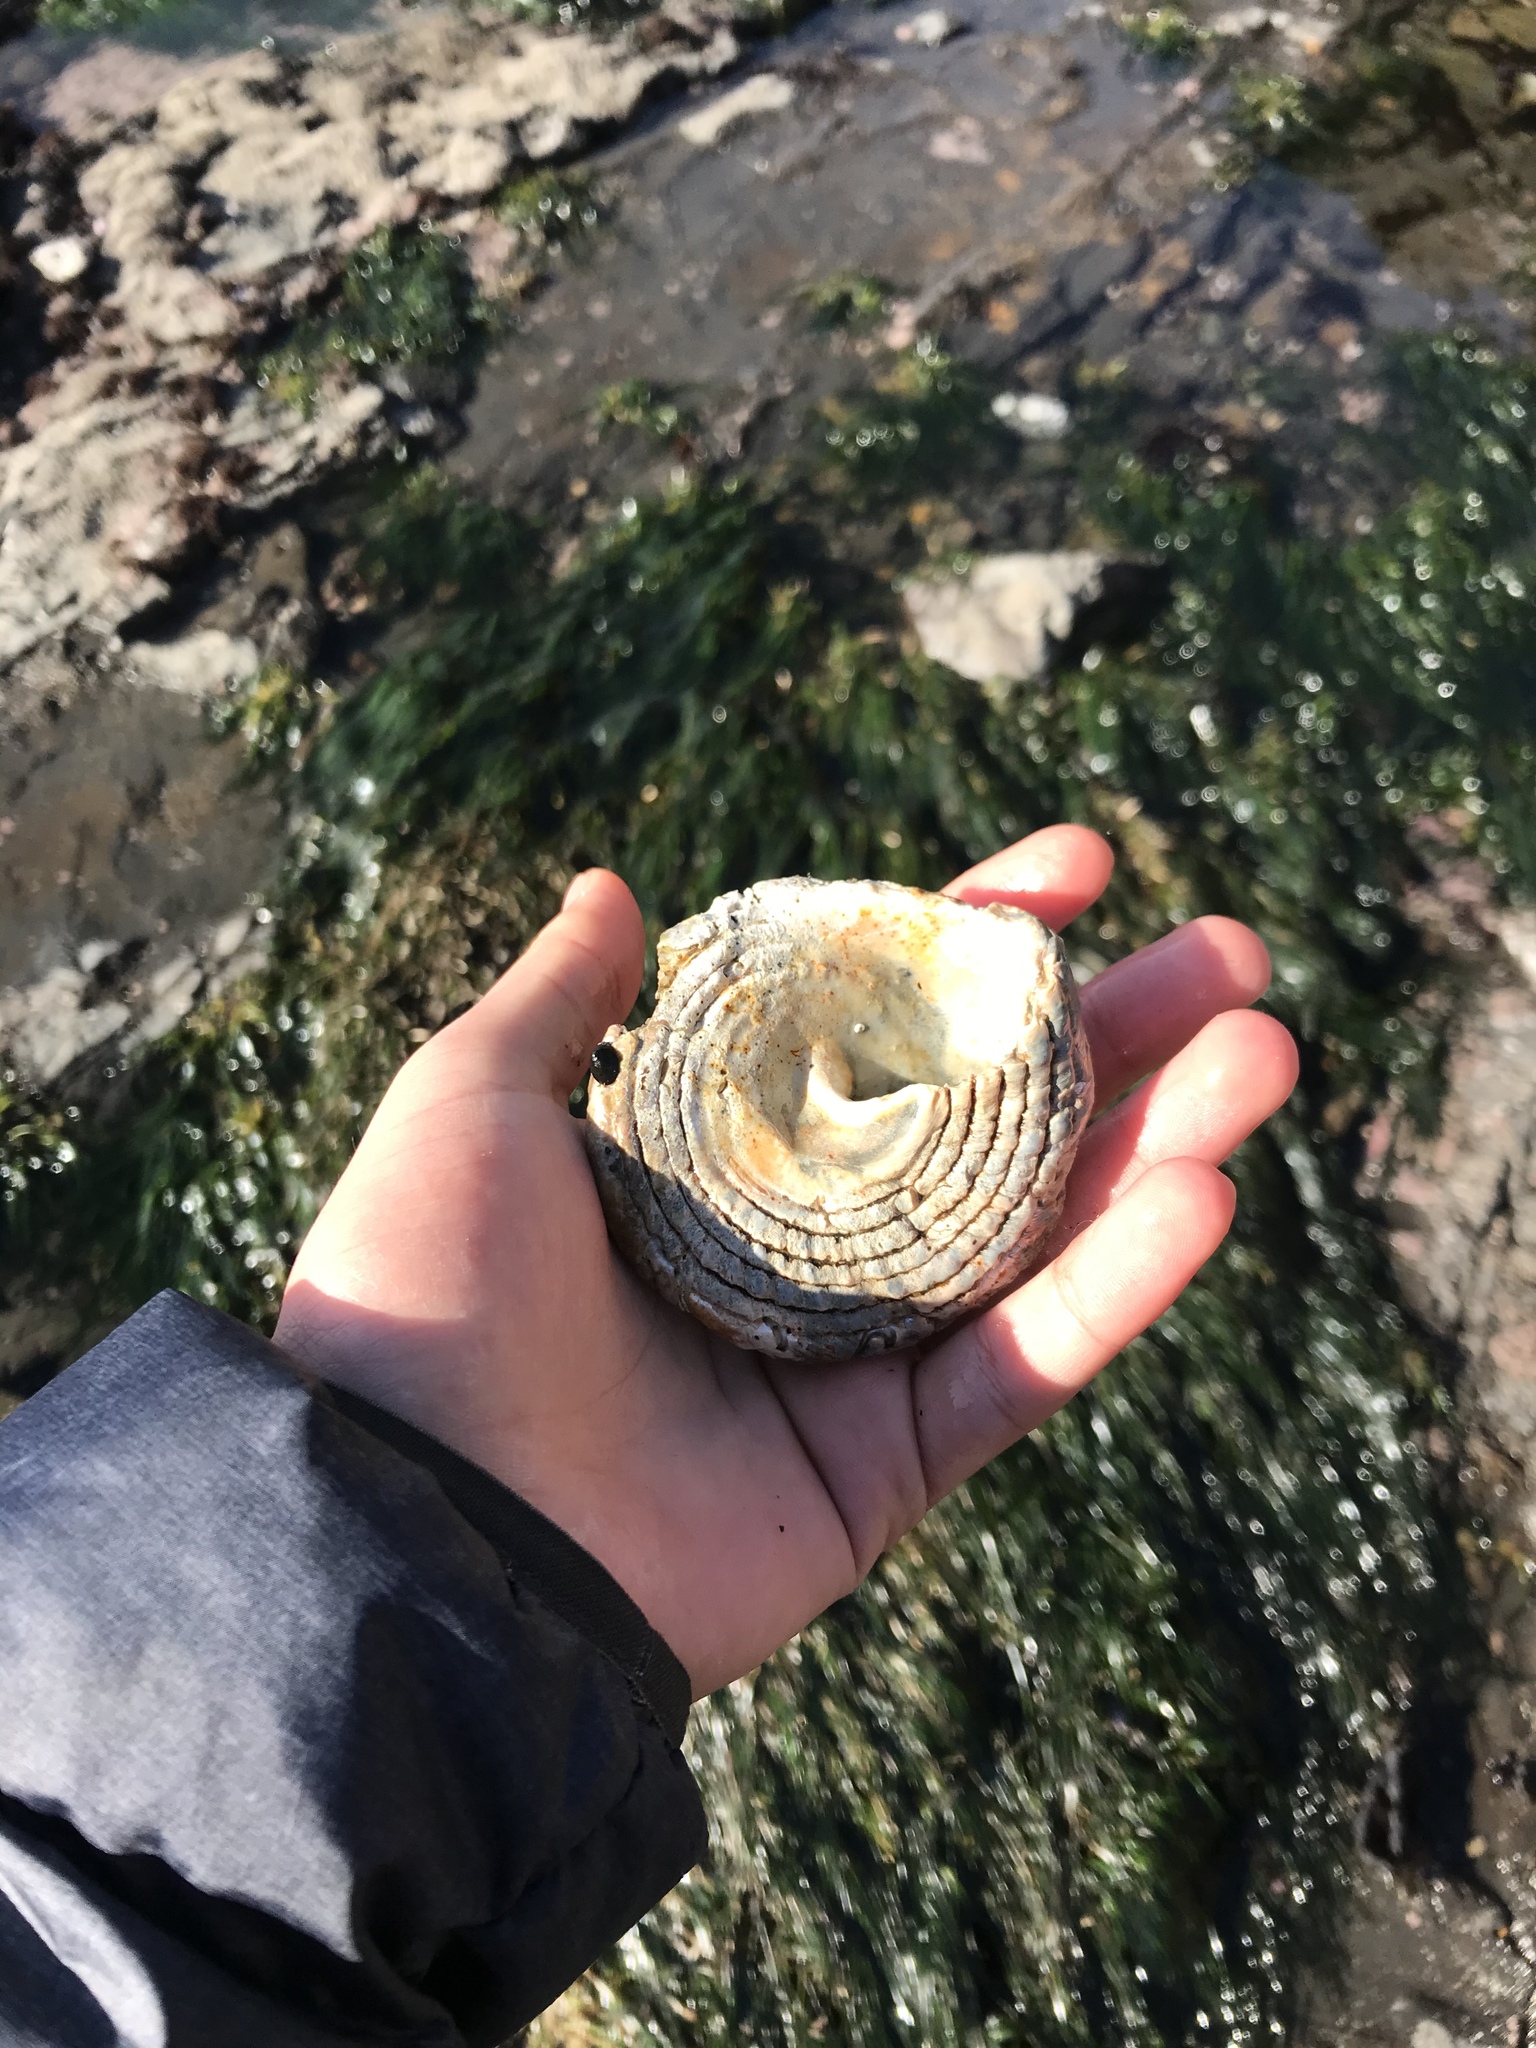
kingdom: Animalia
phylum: Mollusca
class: Gastropoda
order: Trochida
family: Turbinidae
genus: Pomaulax
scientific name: Pomaulax gibberosus
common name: Red turban
